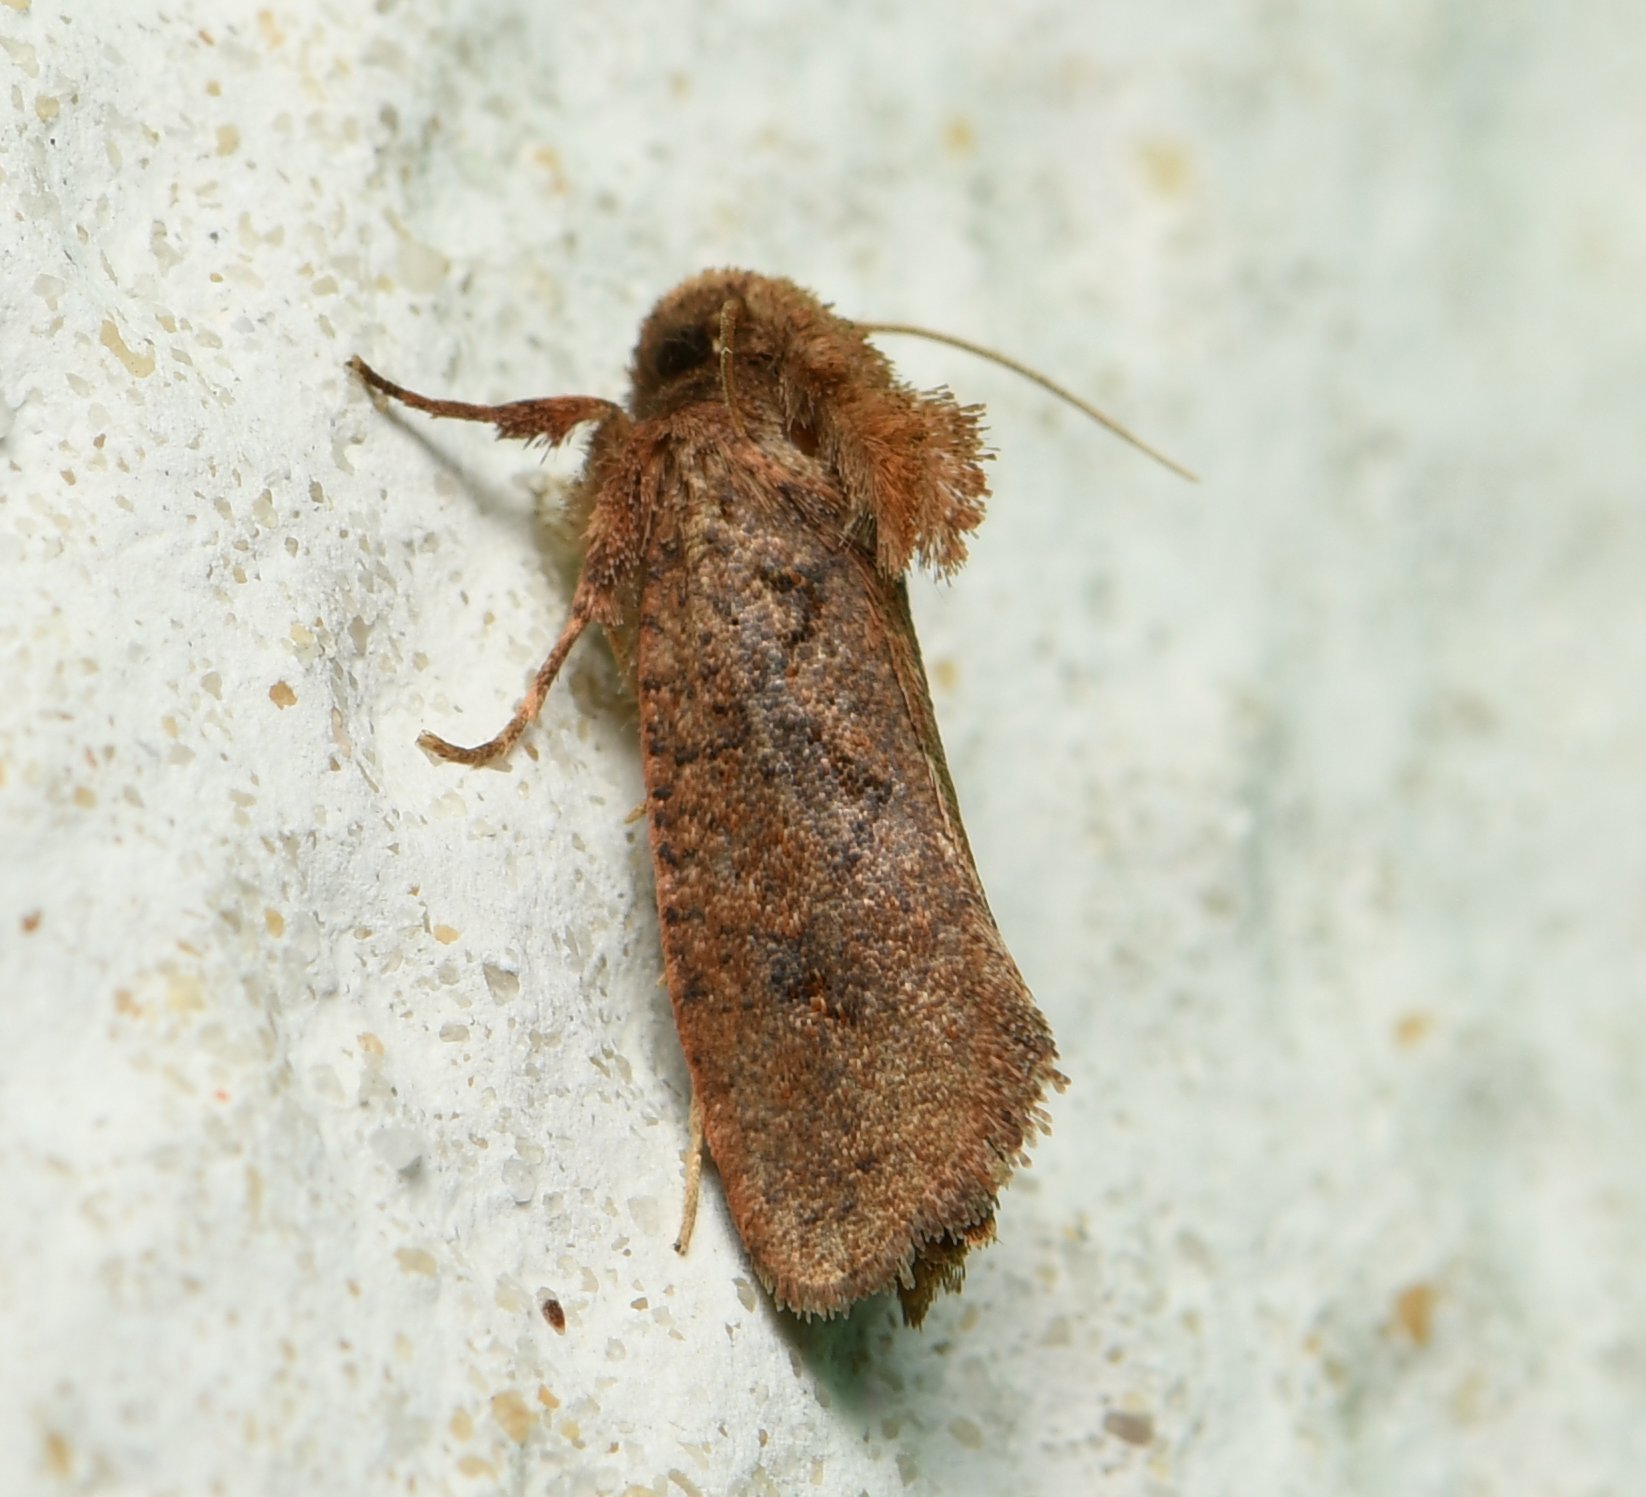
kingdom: Animalia
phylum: Arthropoda
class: Insecta
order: Lepidoptera
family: Tineidae
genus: Acrolophus
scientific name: Acrolophus walsinghami
